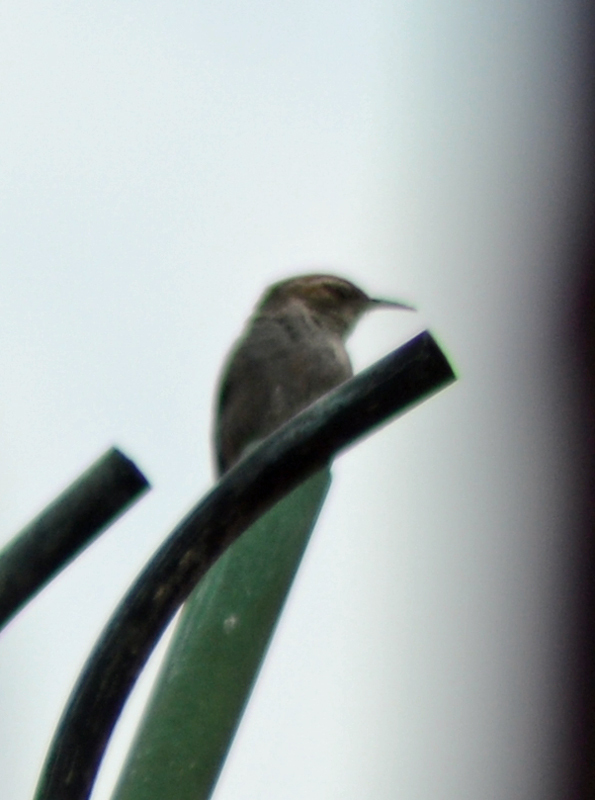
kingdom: Animalia
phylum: Chordata
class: Aves
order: Passeriformes
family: Troglodytidae
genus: Thryomanes
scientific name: Thryomanes bewickii
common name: Bewick's wren
